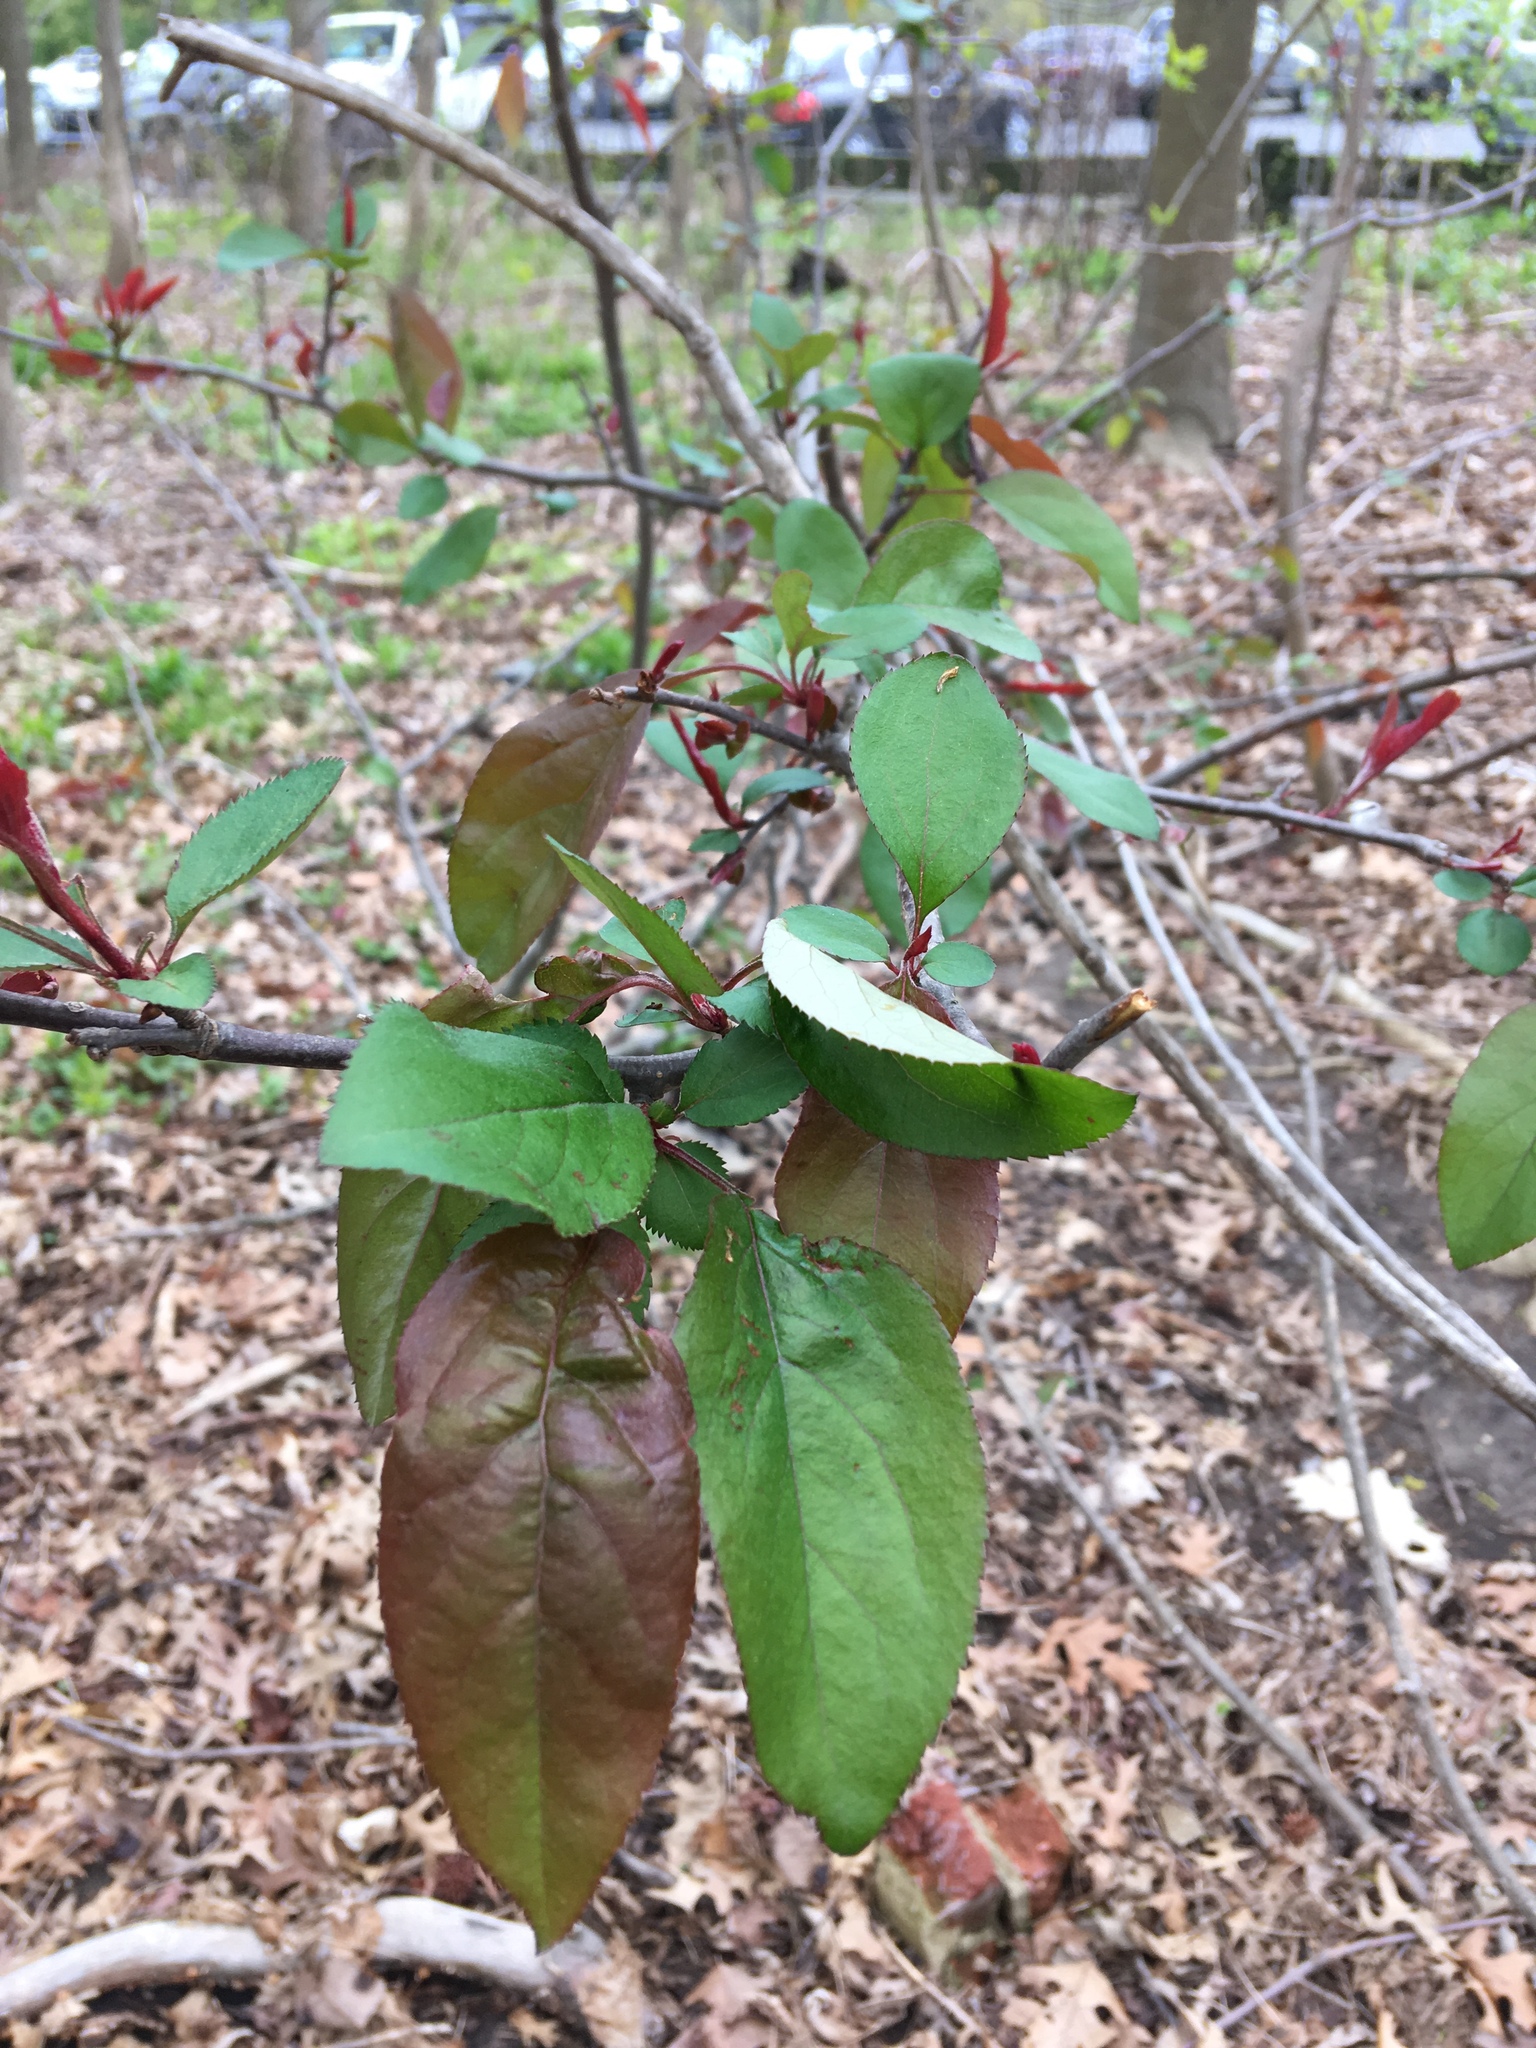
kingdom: Plantae
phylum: Tracheophyta
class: Magnoliopsida
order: Rosales
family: Rosaceae
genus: Malus
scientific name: Malus hupehensis
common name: Chinese crab apple
